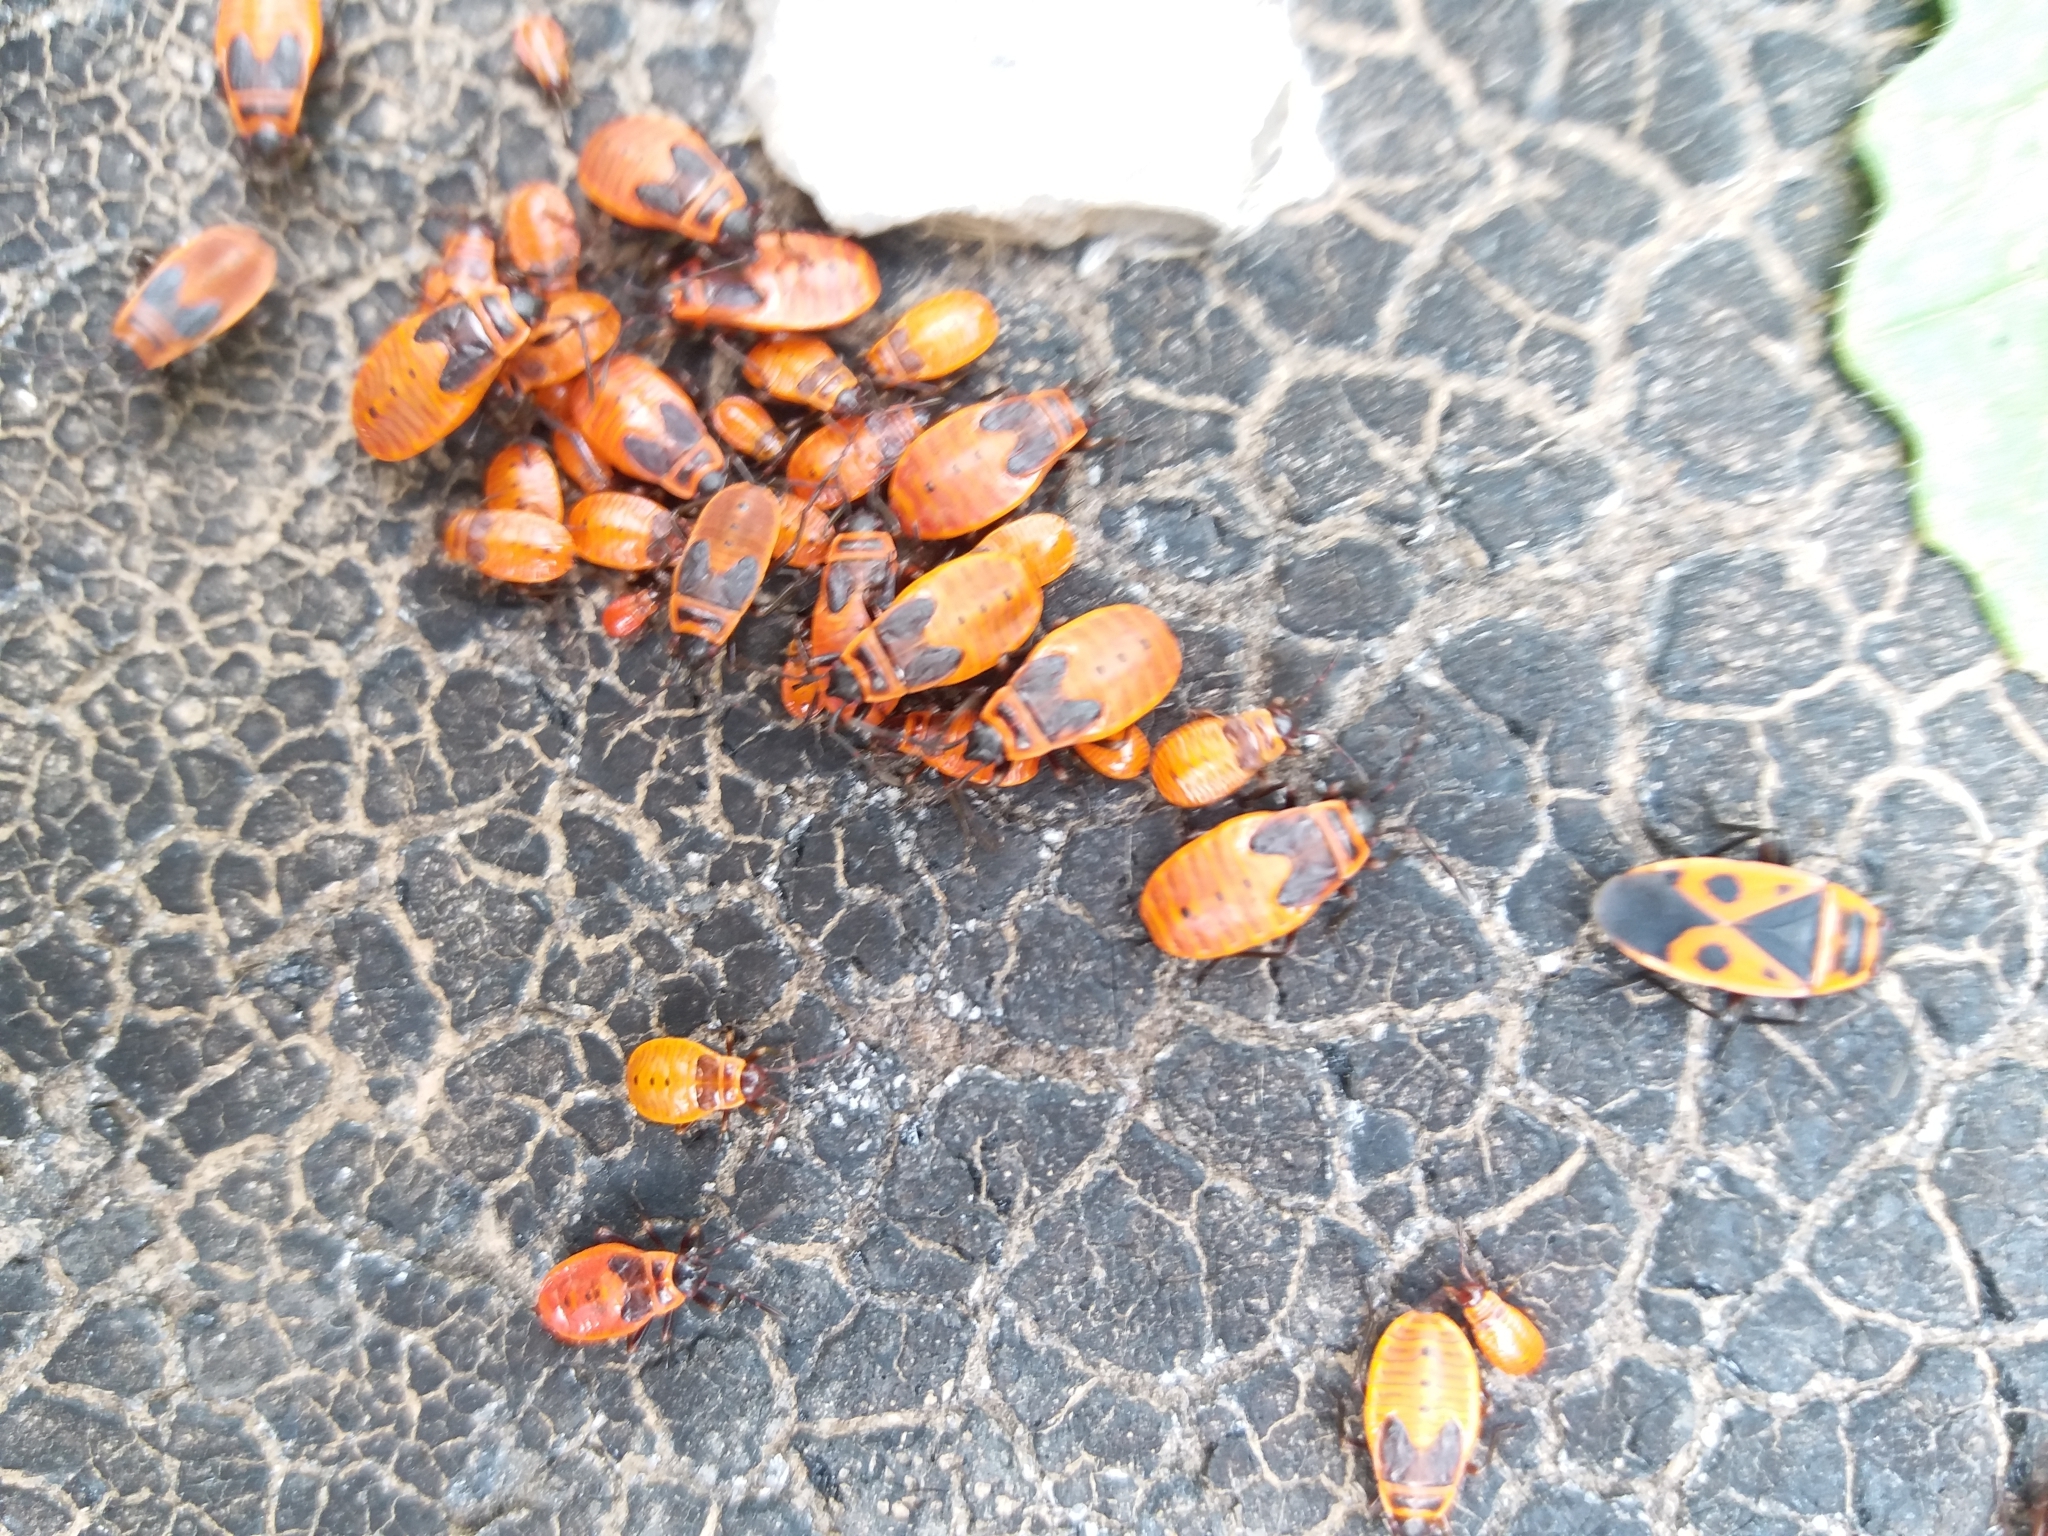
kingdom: Animalia
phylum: Arthropoda
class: Insecta
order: Hemiptera
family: Pyrrhocoridae
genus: Pyrrhocoris
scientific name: Pyrrhocoris apterus
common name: Firebug
